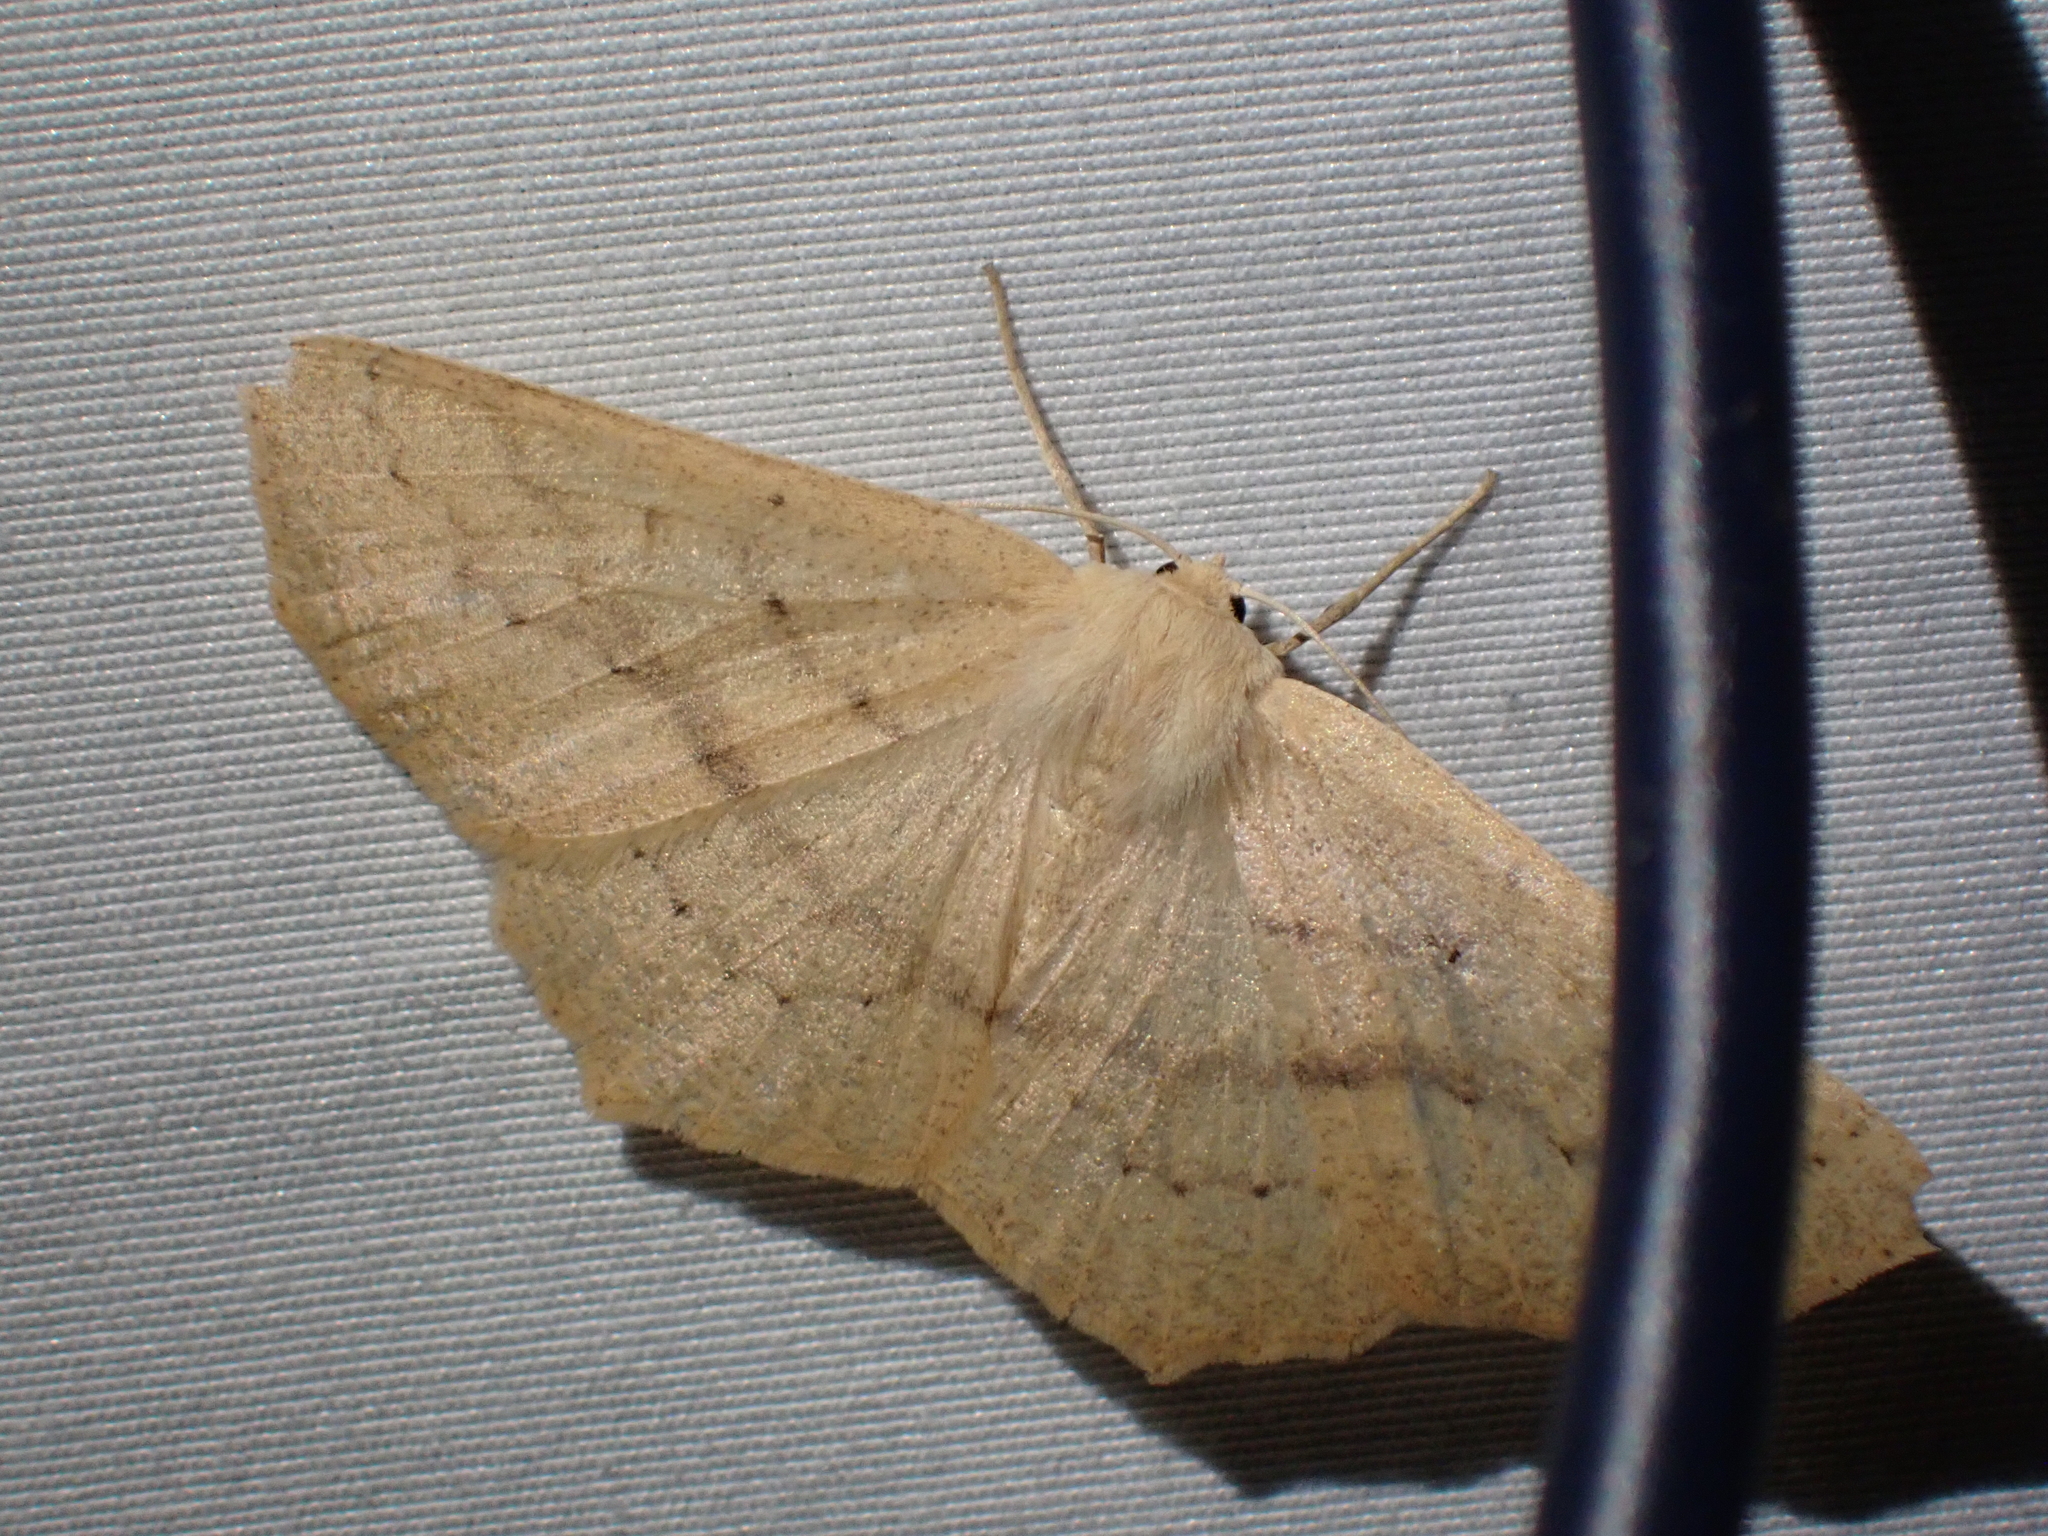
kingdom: Animalia
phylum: Arthropoda
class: Insecta
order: Lepidoptera
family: Geometridae
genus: Sabulodes
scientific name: Sabulodes aegrotata
